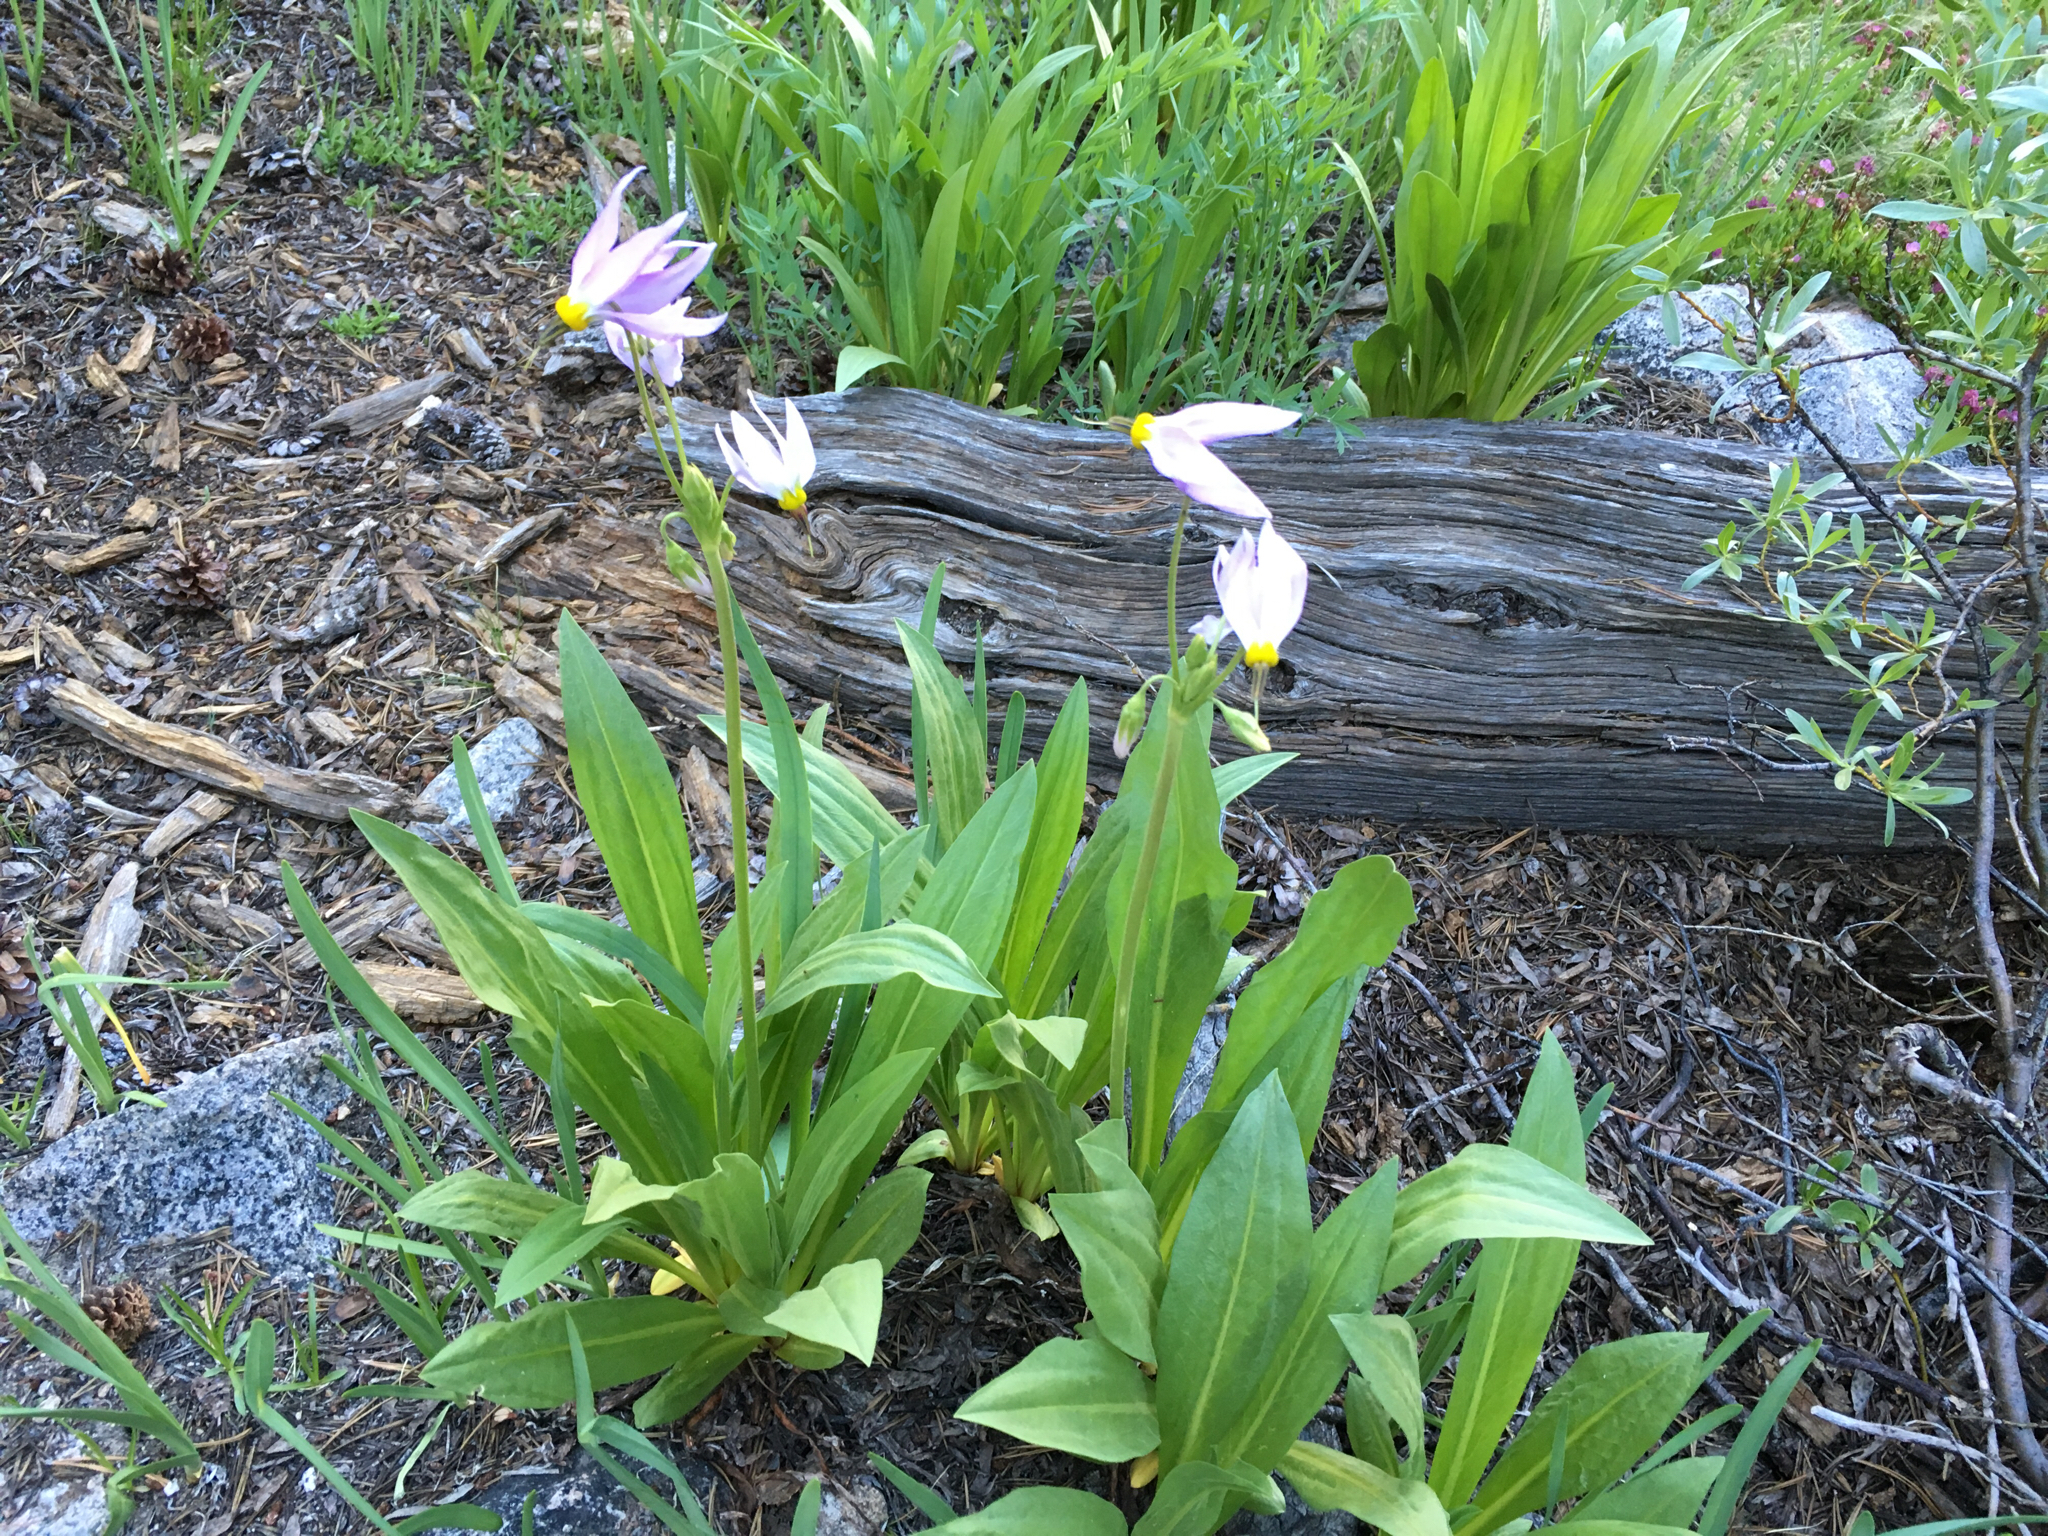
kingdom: Plantae
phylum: Tracheophyta
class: Magnoliopsida
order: Ericales
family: Primulaceae
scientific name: Primulaceae
